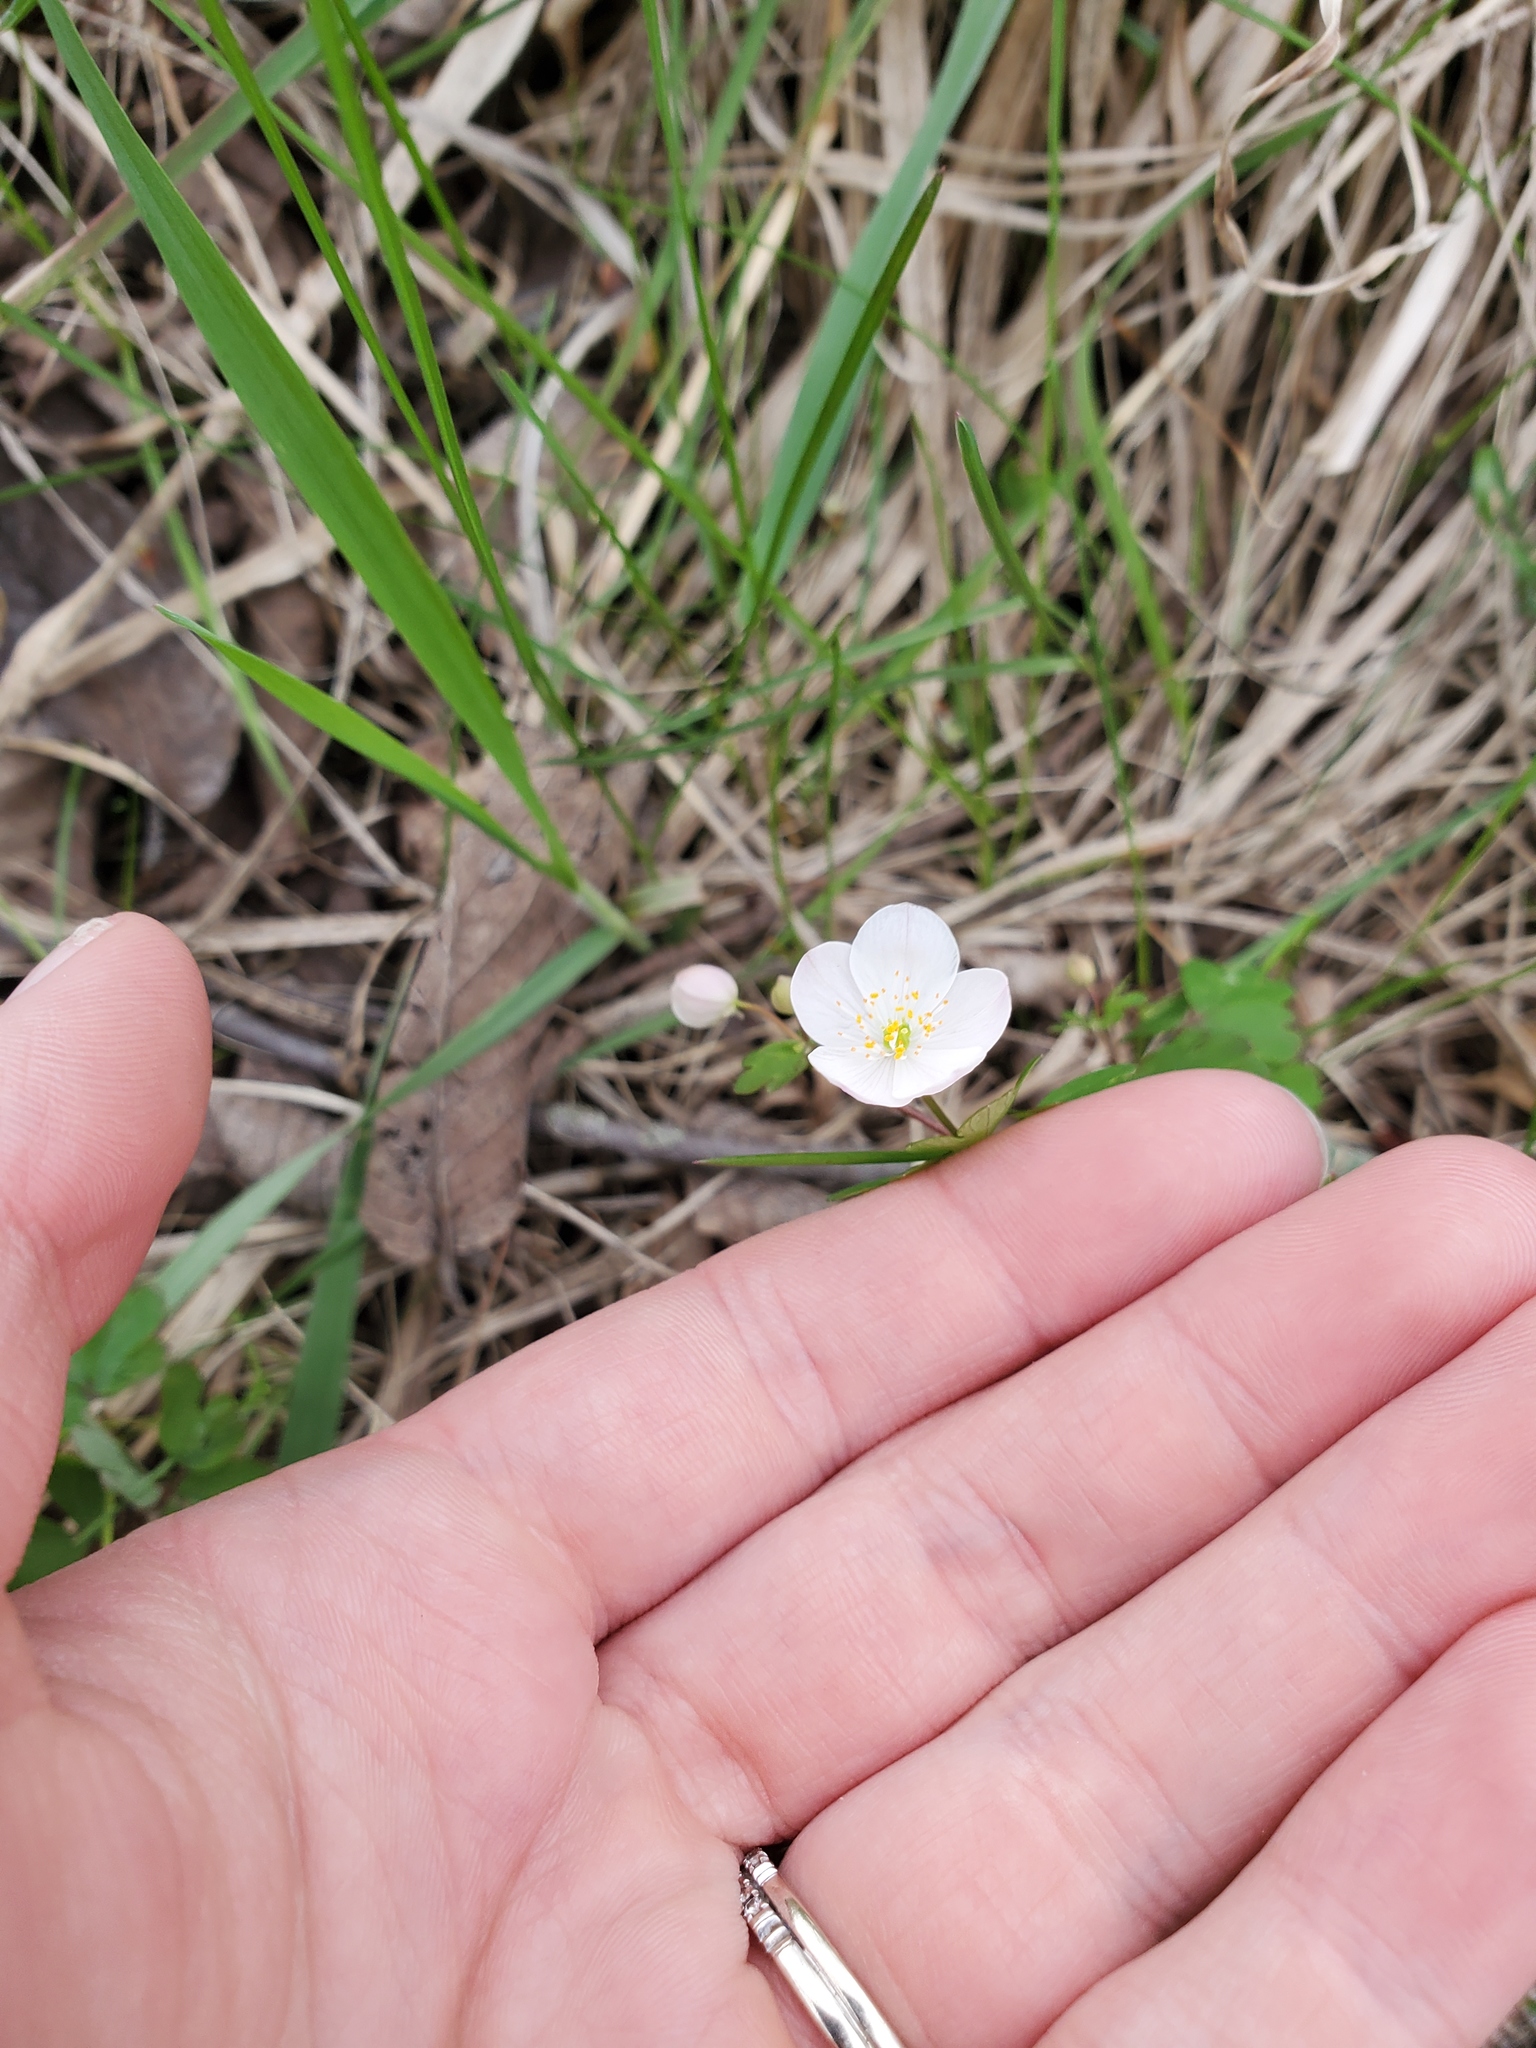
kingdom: Plantae
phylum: Tracheophyta
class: Magnoliopsida
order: Ranunculales
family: Ranunculaceae
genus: Enemion
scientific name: Enemion biternatum
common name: Eastern false rue-anemone
